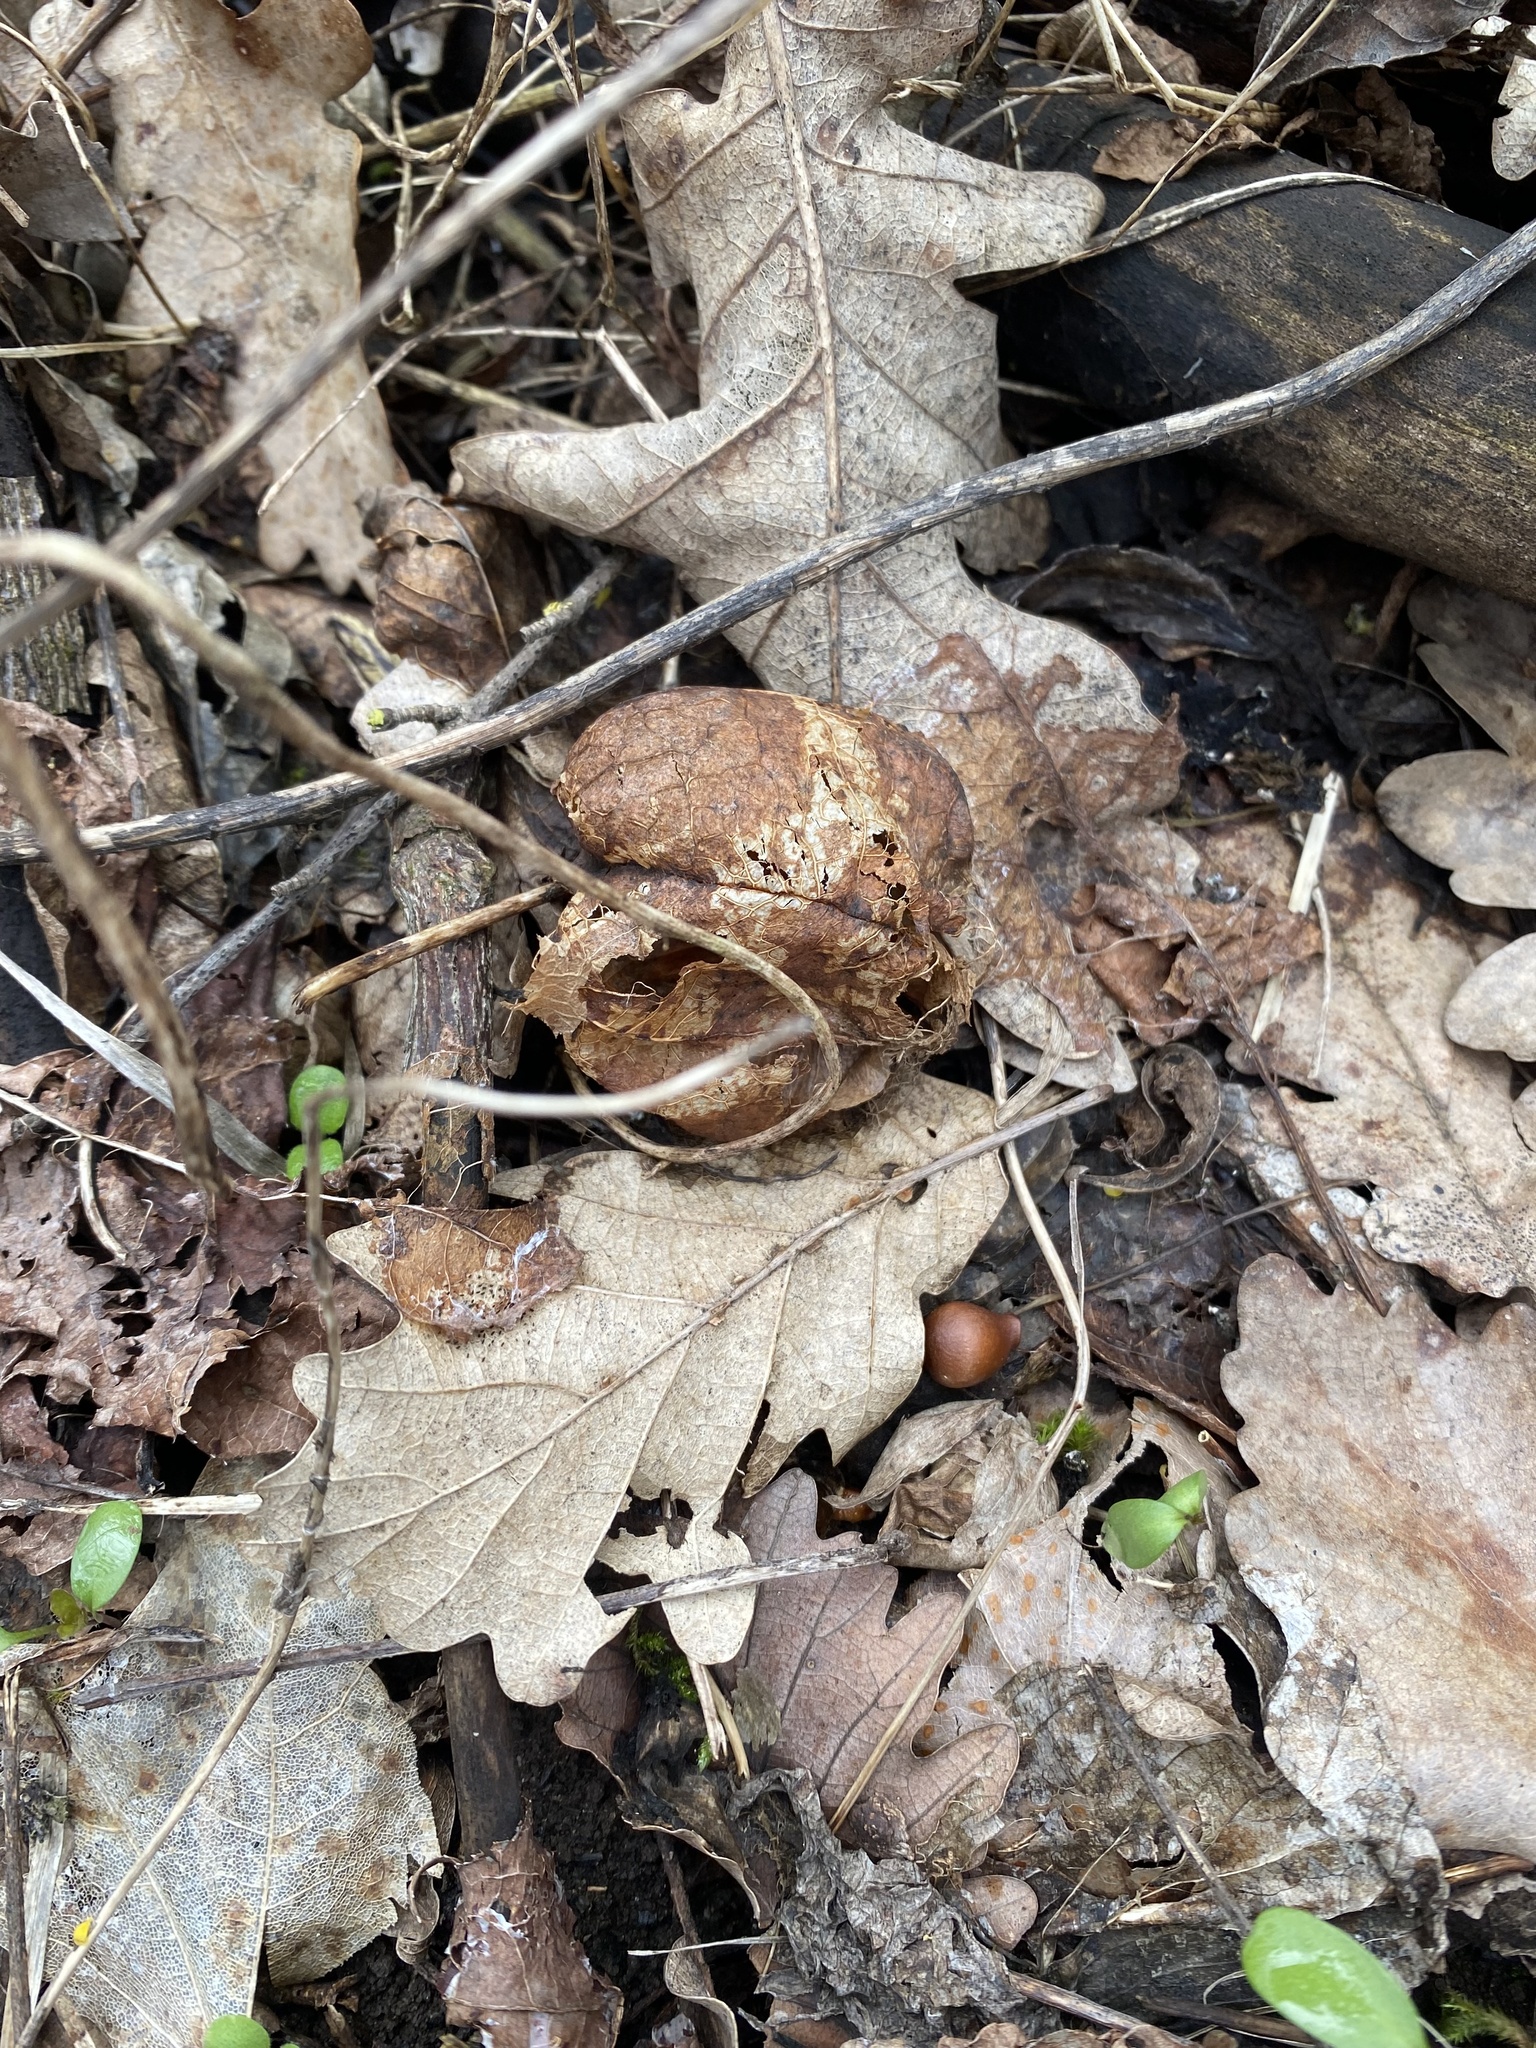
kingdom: Plantae
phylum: Tracheophyta
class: Magnoliopsida
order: Crossosomatales
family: Staphyleaceae
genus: Staphylea
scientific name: Staphylea pinnata
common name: Bladdernut
